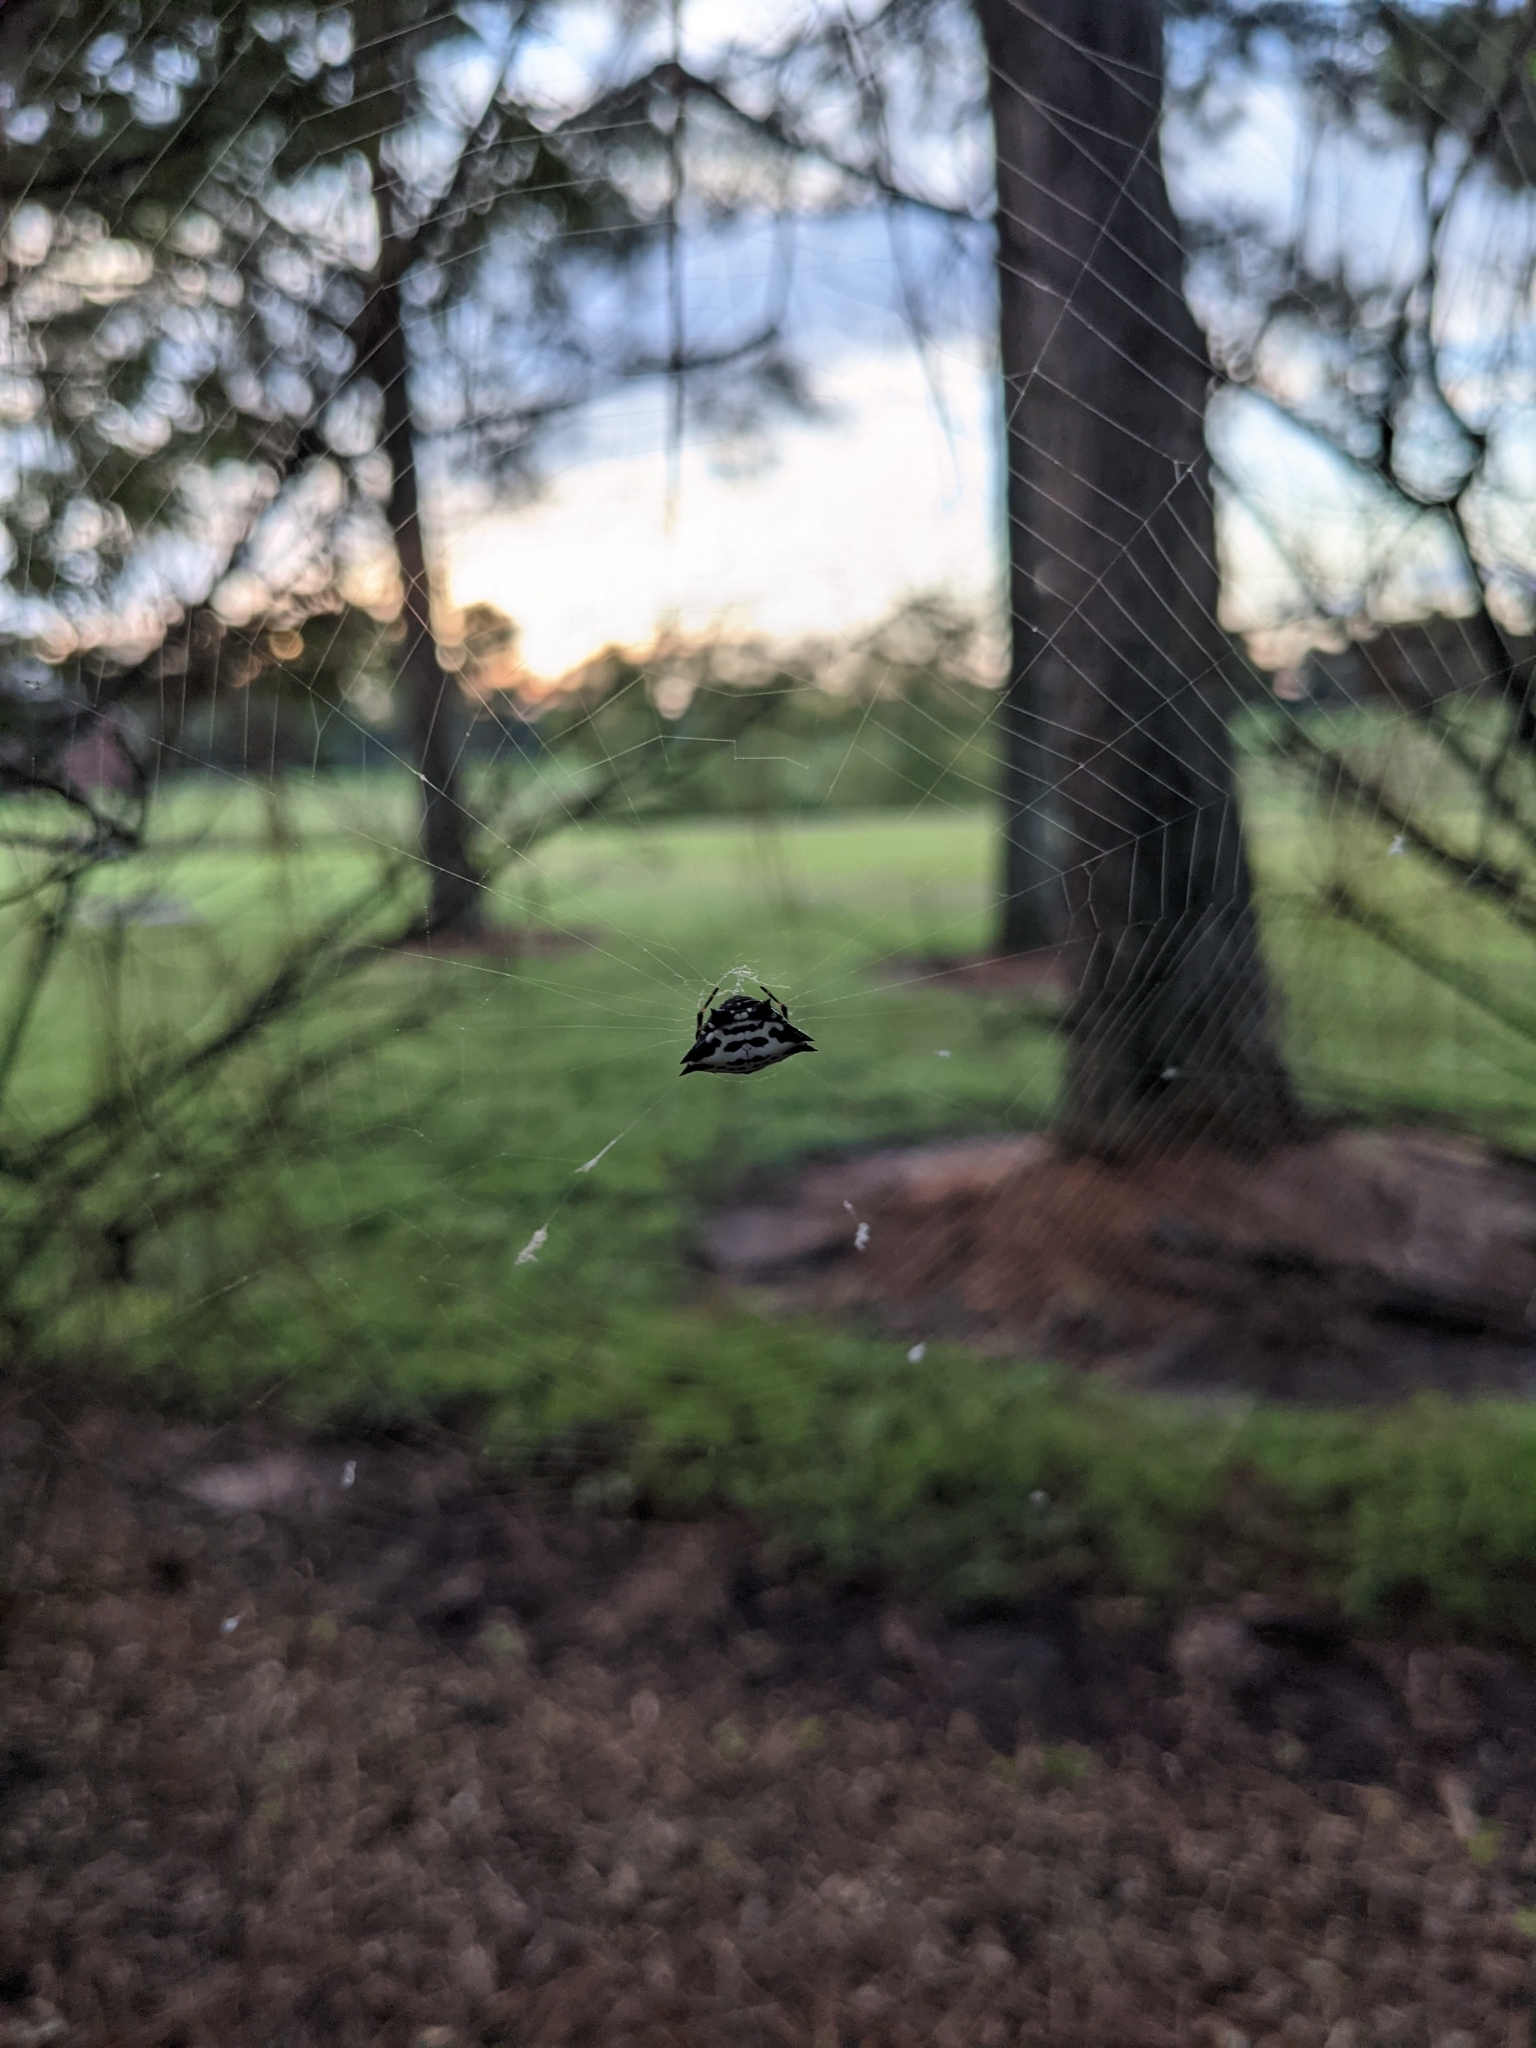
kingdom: Animalia
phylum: Arthropoda
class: Arachnida
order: Araneae
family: Araneidae
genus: Gasteracantha
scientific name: Gasteracantha cancriformis
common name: Orb weavers
